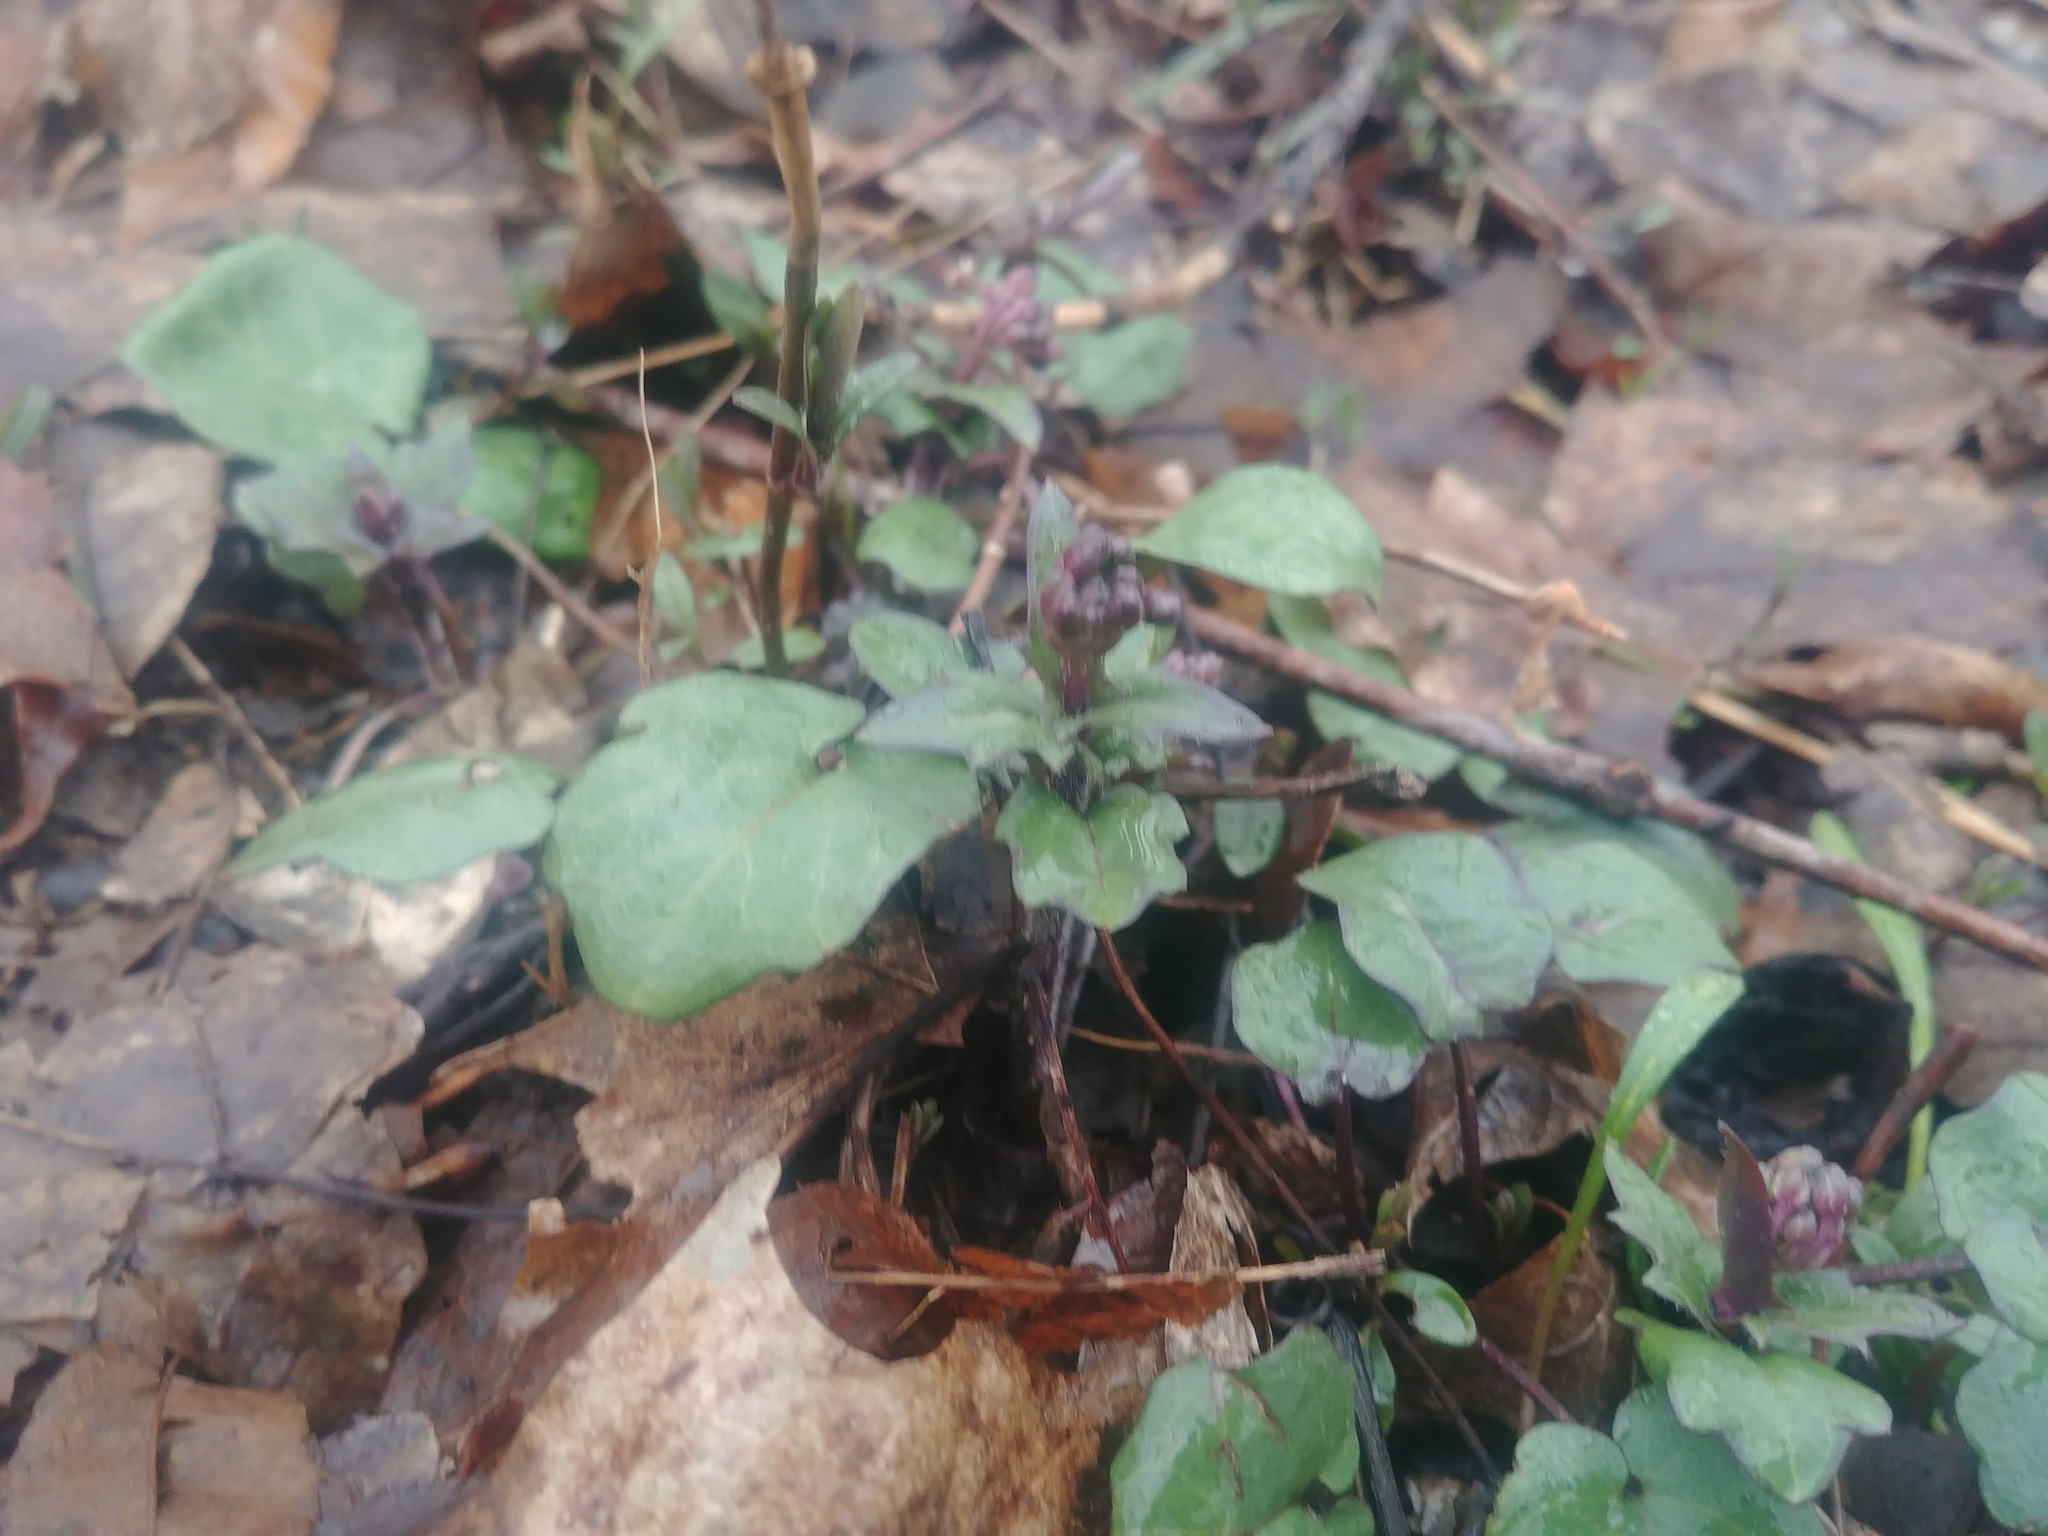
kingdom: Plantae
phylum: Tracheophyta
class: Magnoliopsida
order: Brassicales
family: Brassicaceae
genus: Cardamine
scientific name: Cardamine douglassii
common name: Purple cress
